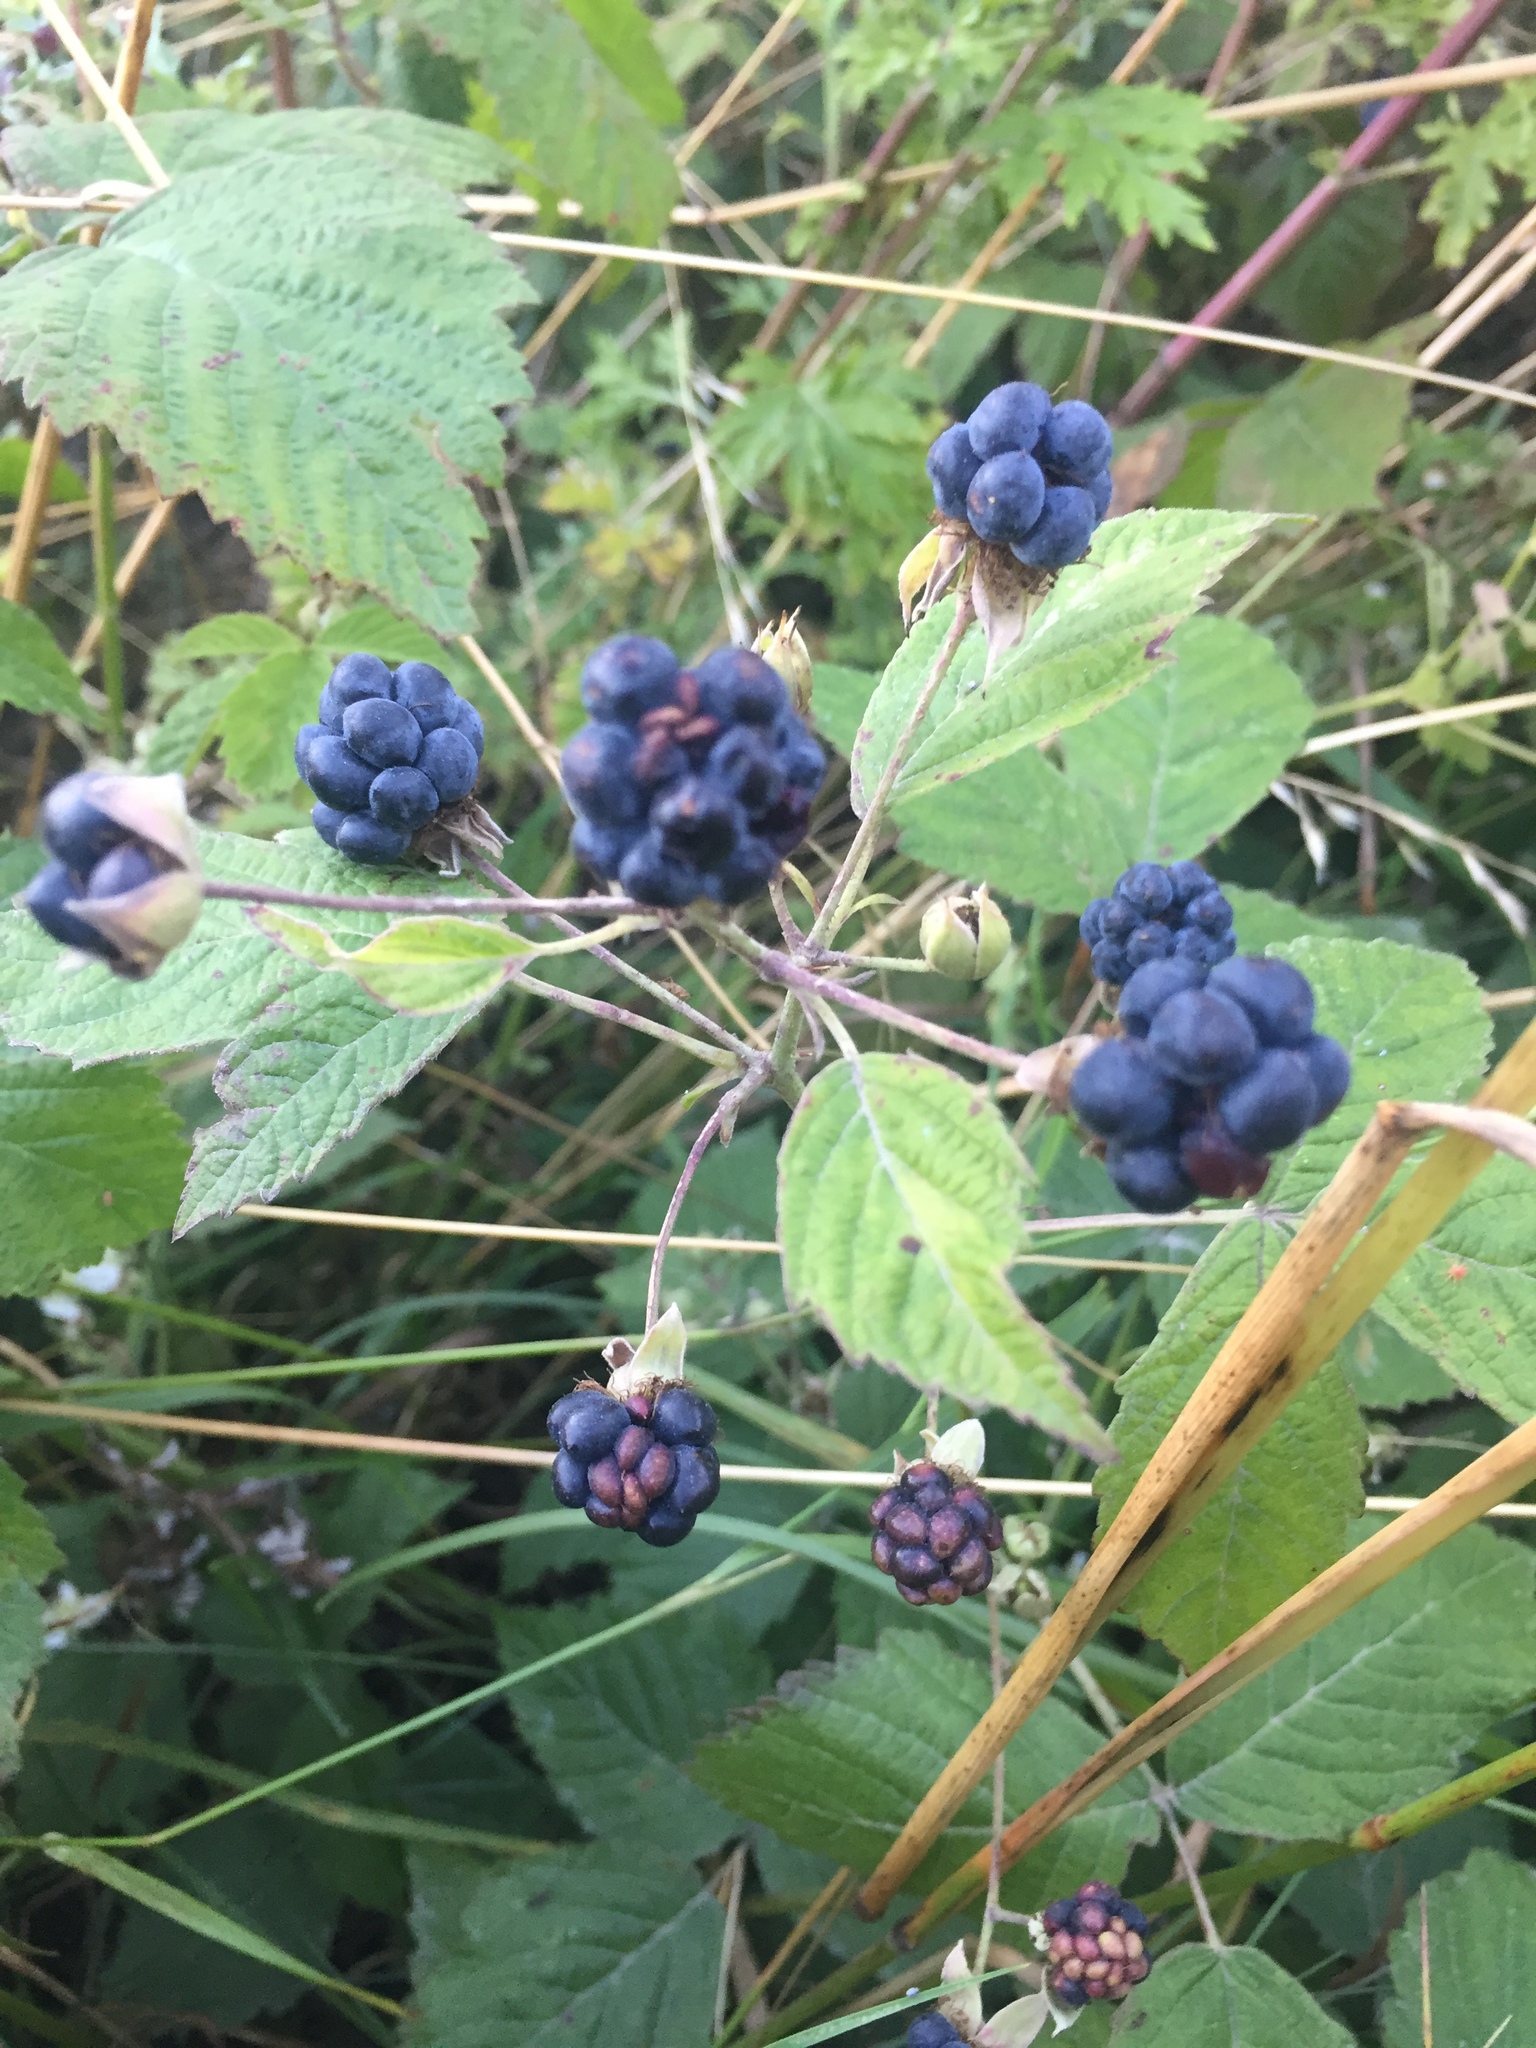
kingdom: Plantae
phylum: Tracheophyta
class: Magnoliopsida
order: Rosales
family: Rosaceae
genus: Rubus
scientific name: Rubus caesius
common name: Dewberry
